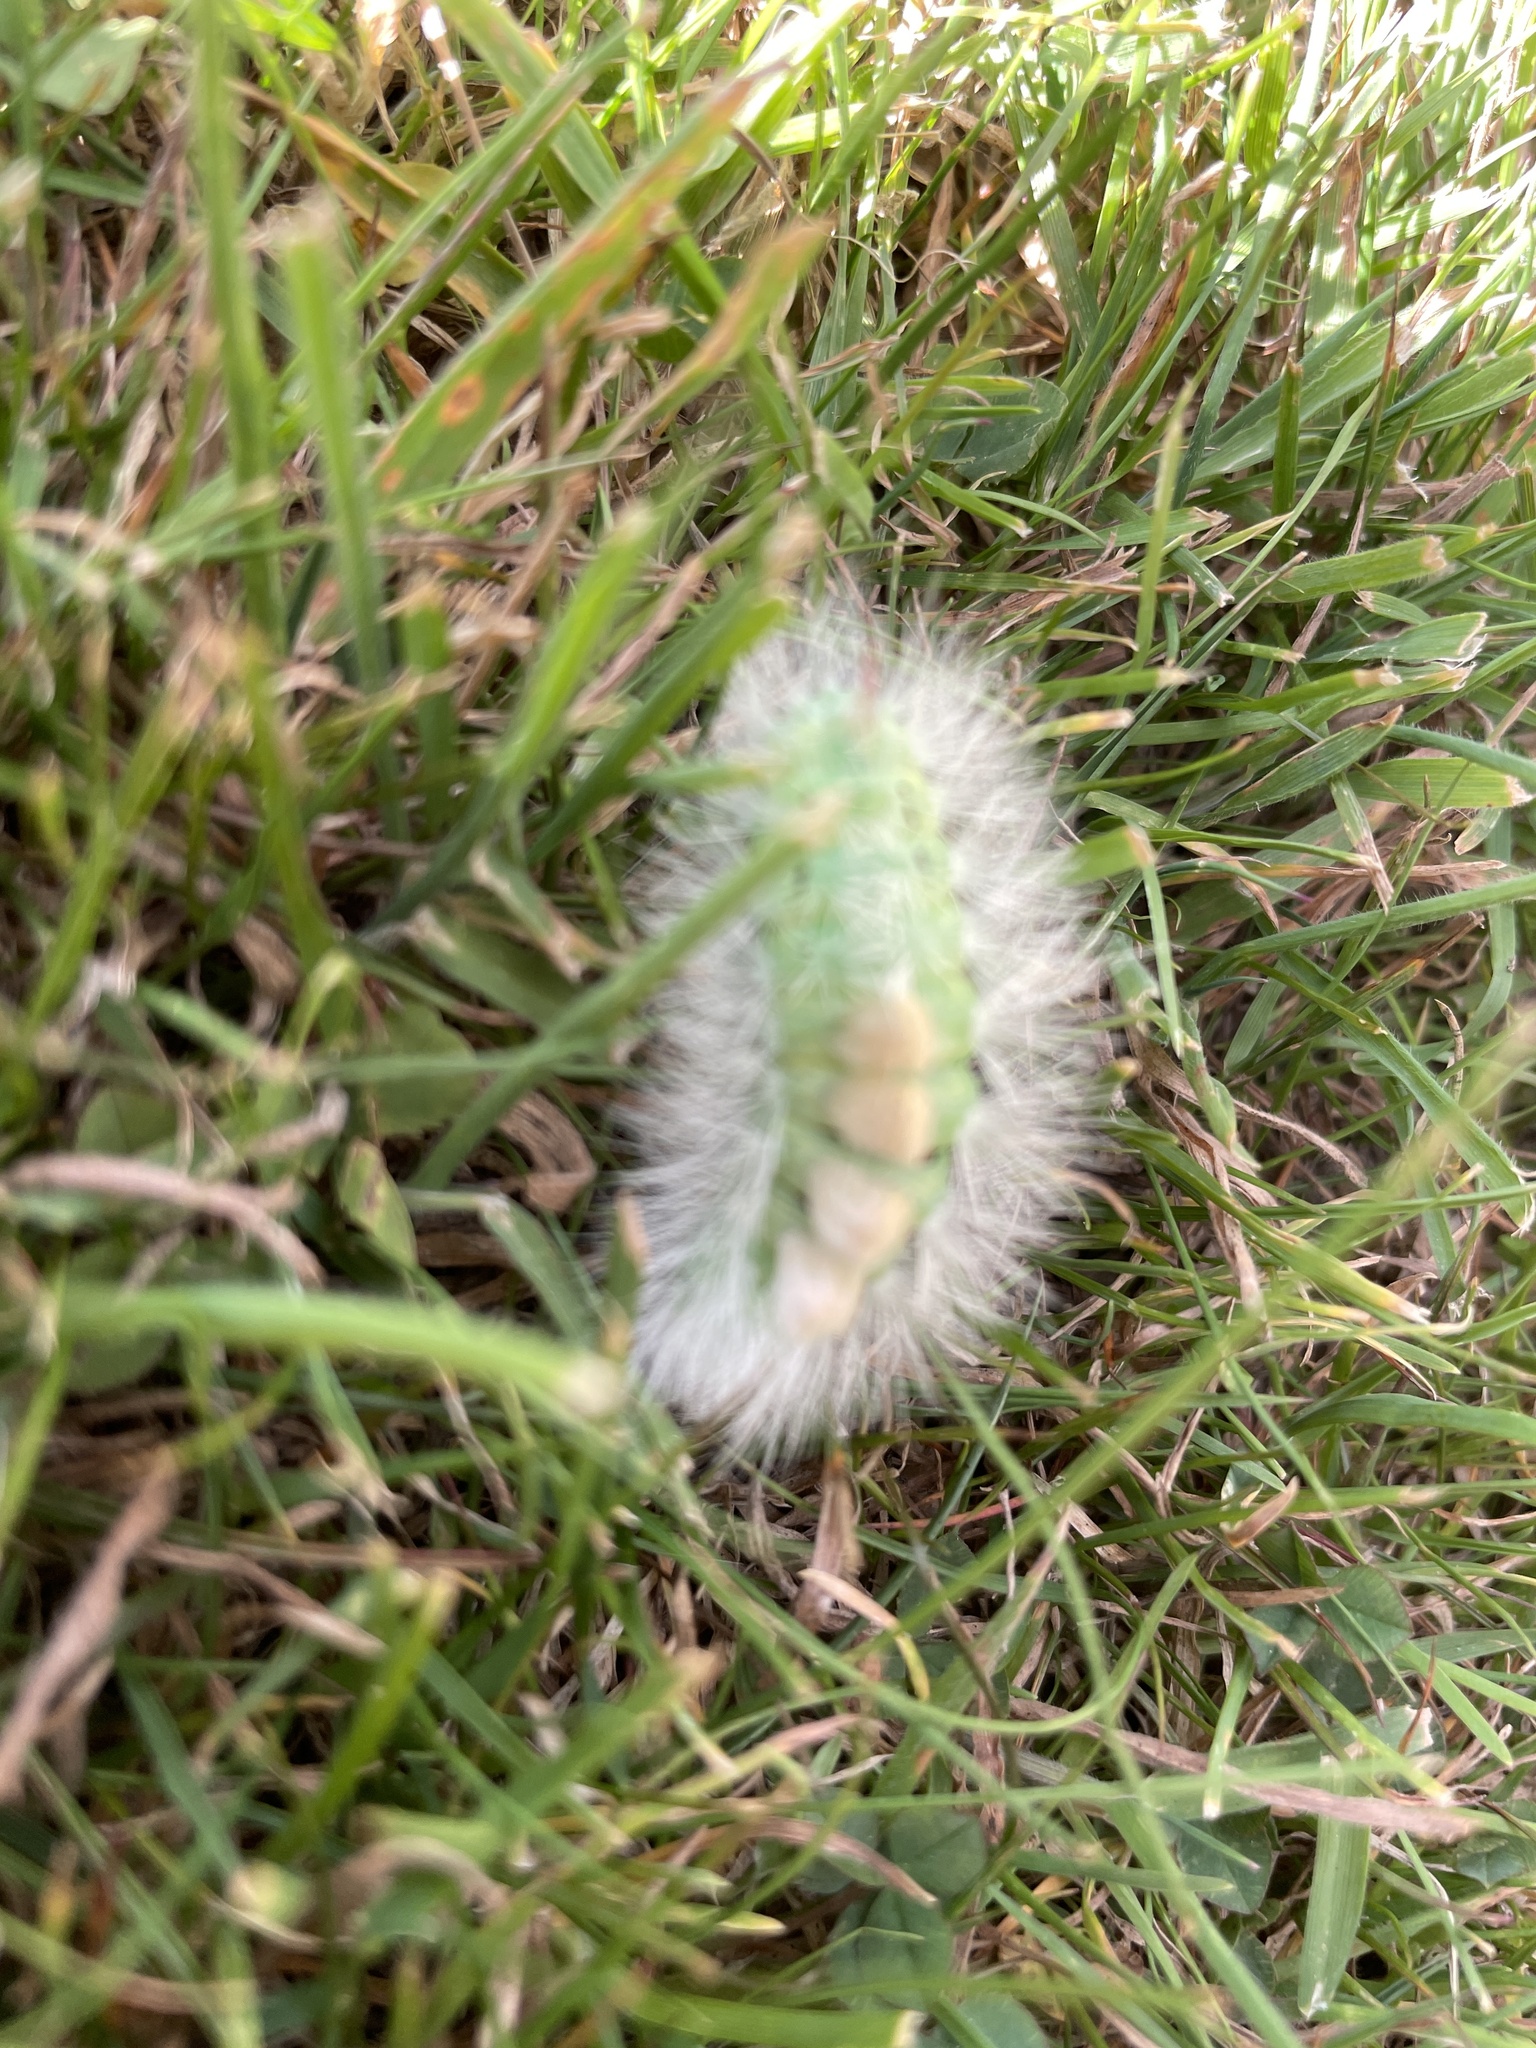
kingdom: Animalia
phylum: Arthropoda
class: Insecta
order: Lepidoptera
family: Erebidae
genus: Calliteara
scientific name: Calliteara pudibunda
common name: Pale tussock
